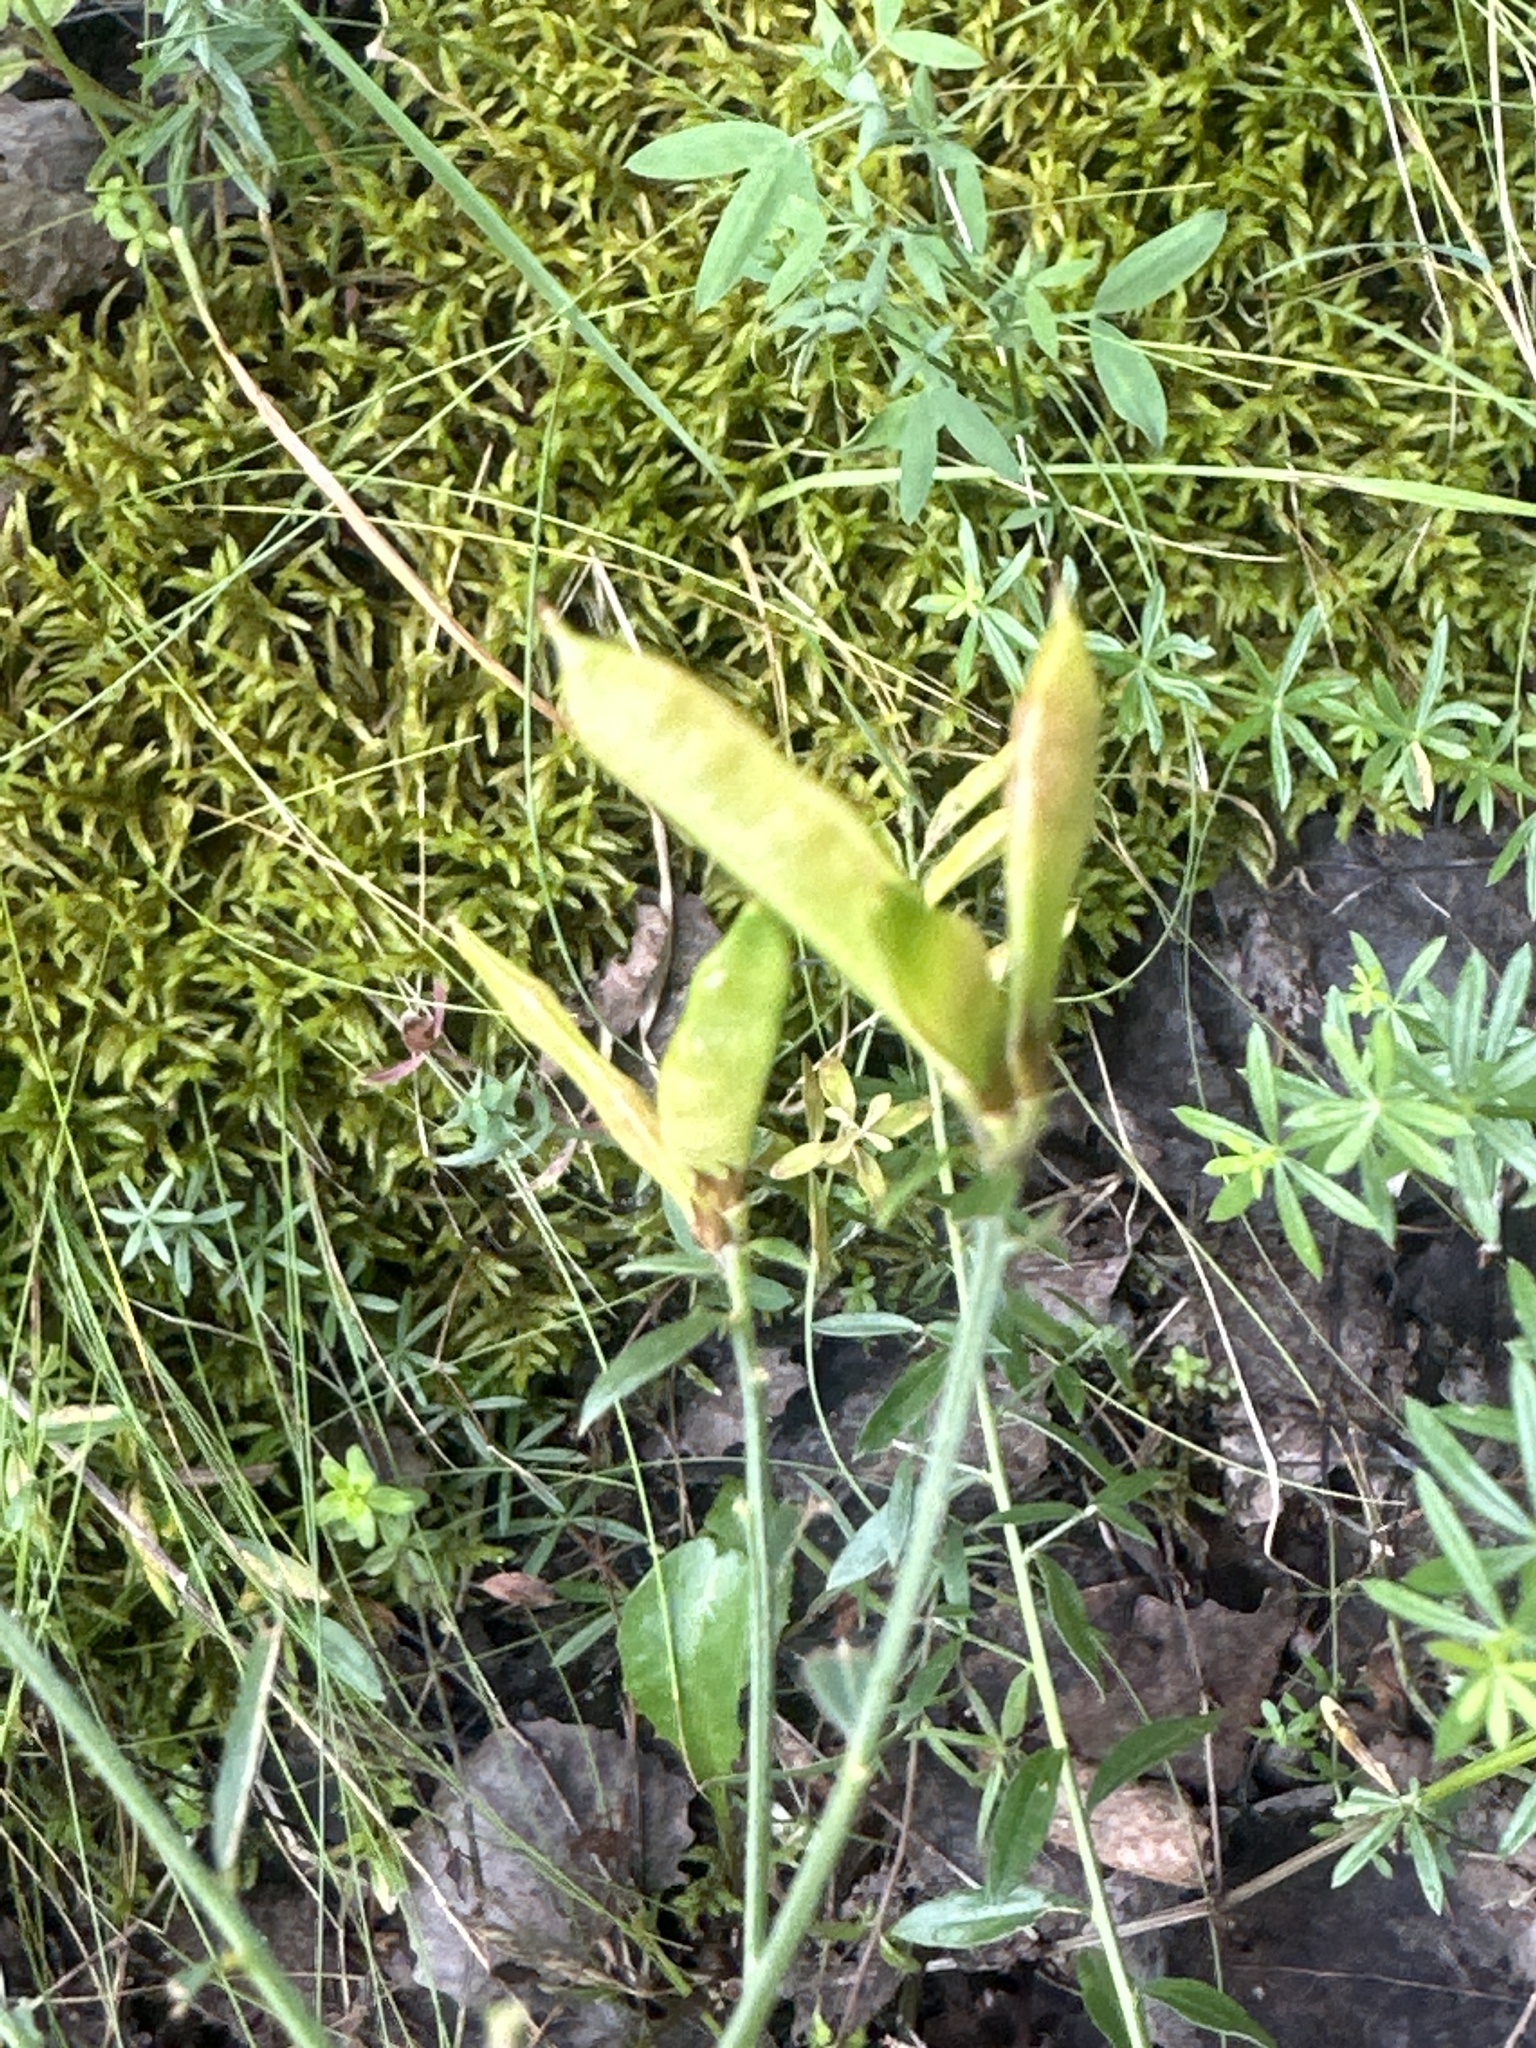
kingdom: Plantae
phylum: Tracheophyta
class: Magnoliopsida
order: Fabales
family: Fabaceae
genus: Lathyrus
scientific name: Lathyrus pratensis
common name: Meadow vetchling
